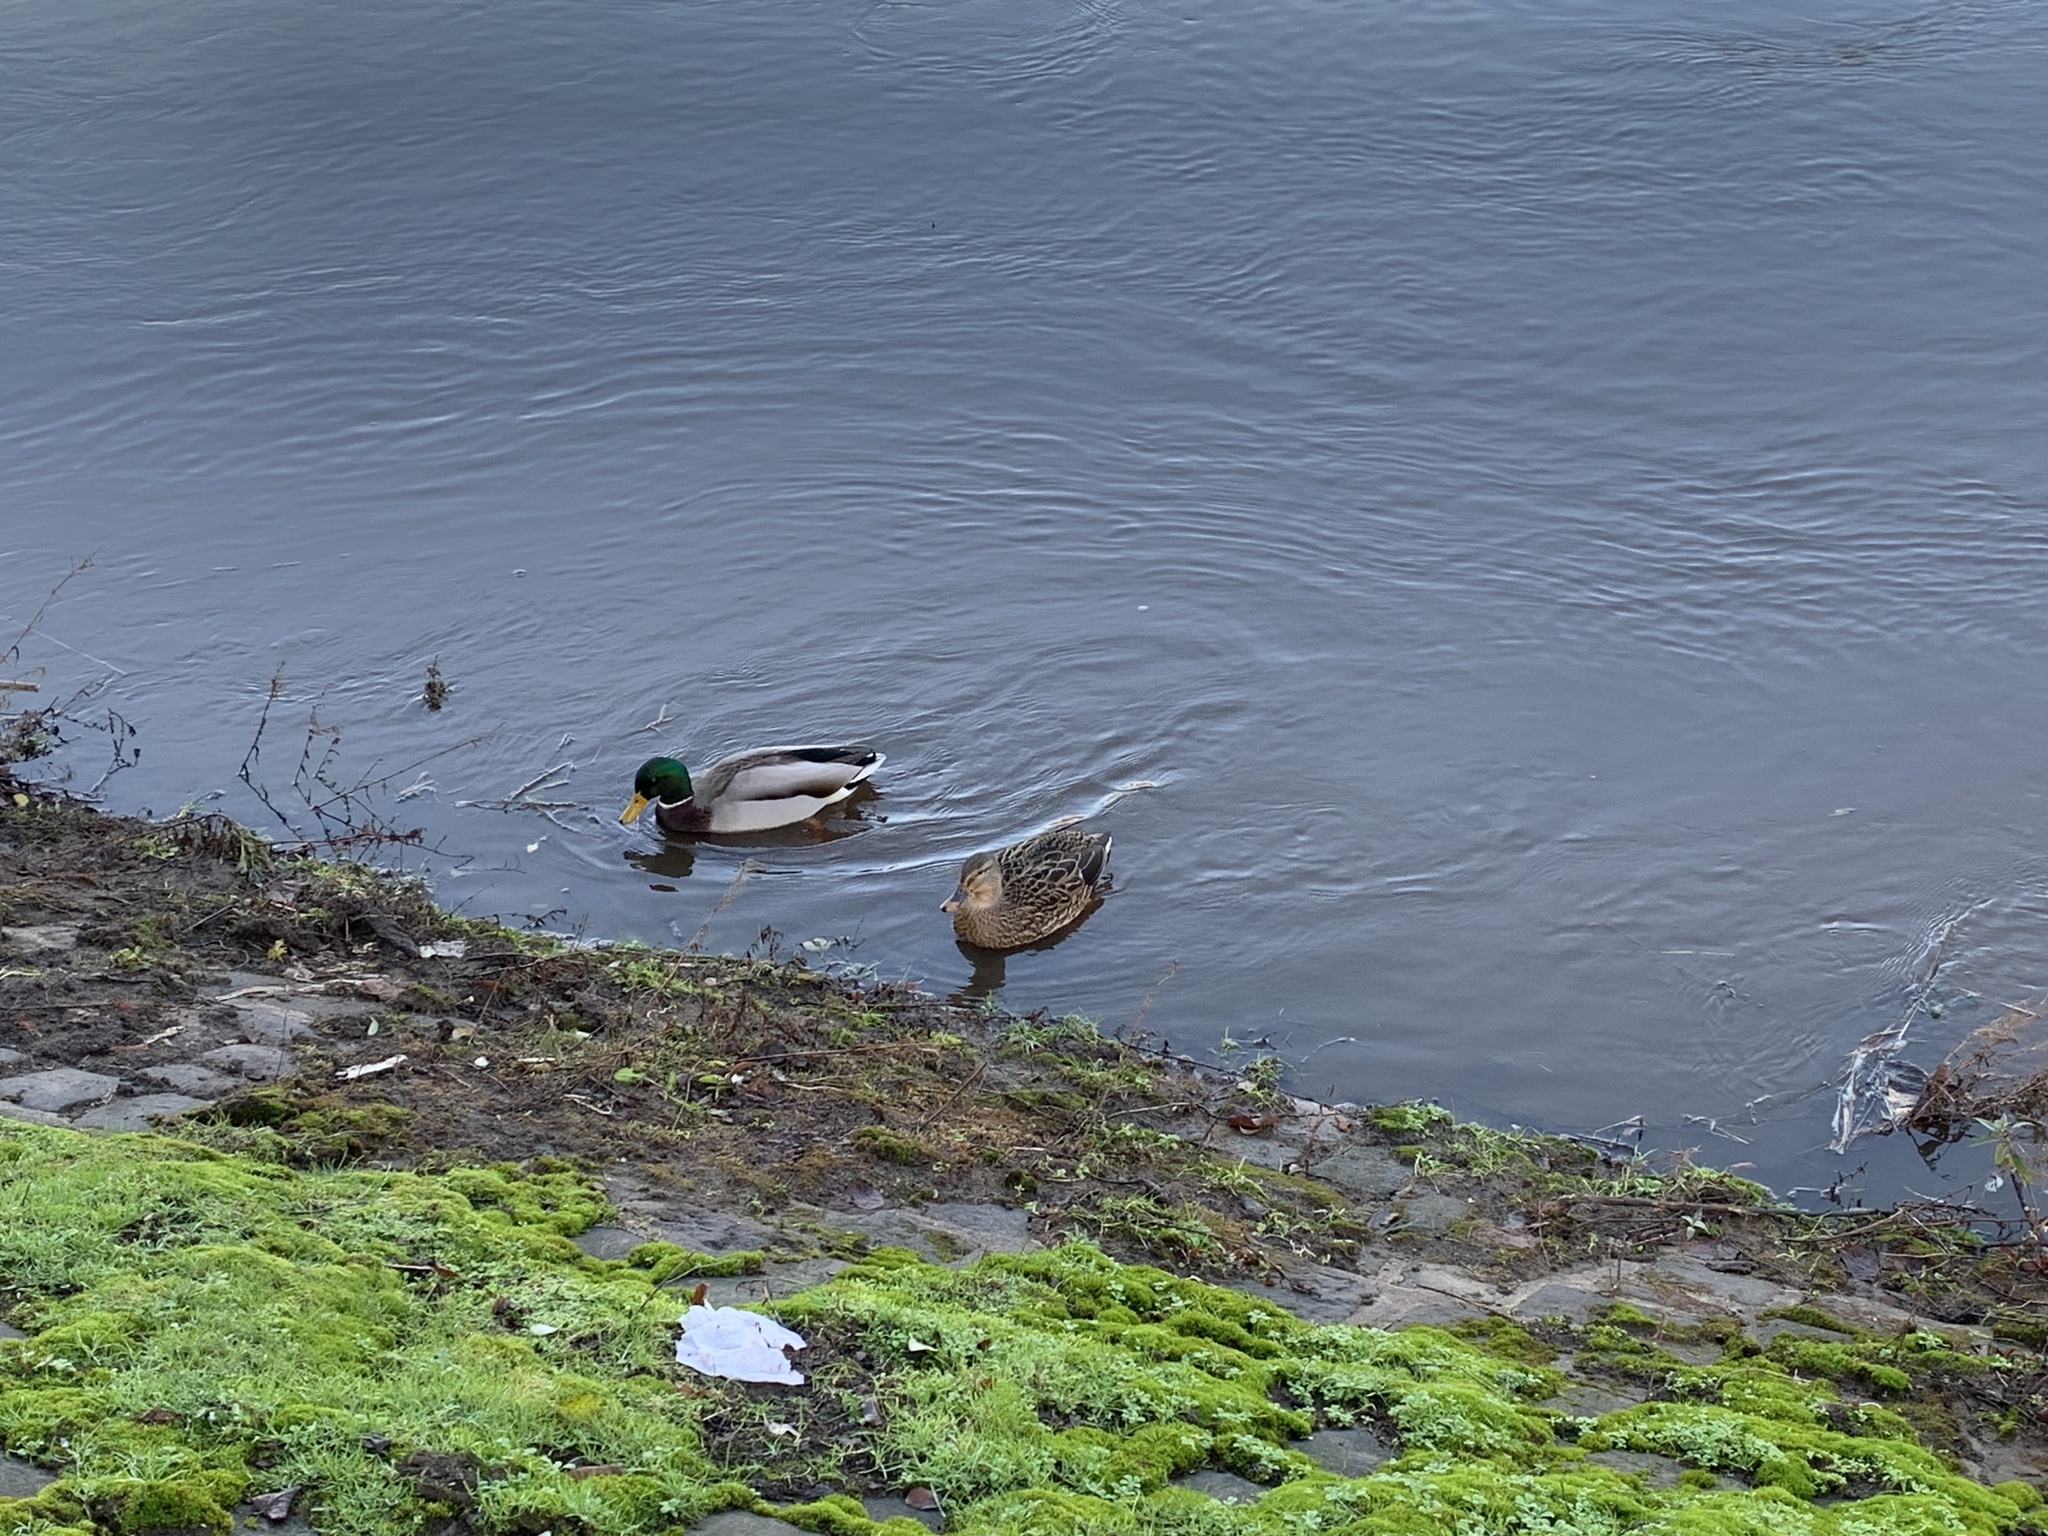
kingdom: Animalia
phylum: Chordata
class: Aves
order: Anseriformes
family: Anatidae
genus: Anas
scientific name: Anas platyrhynchos
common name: Mallard
